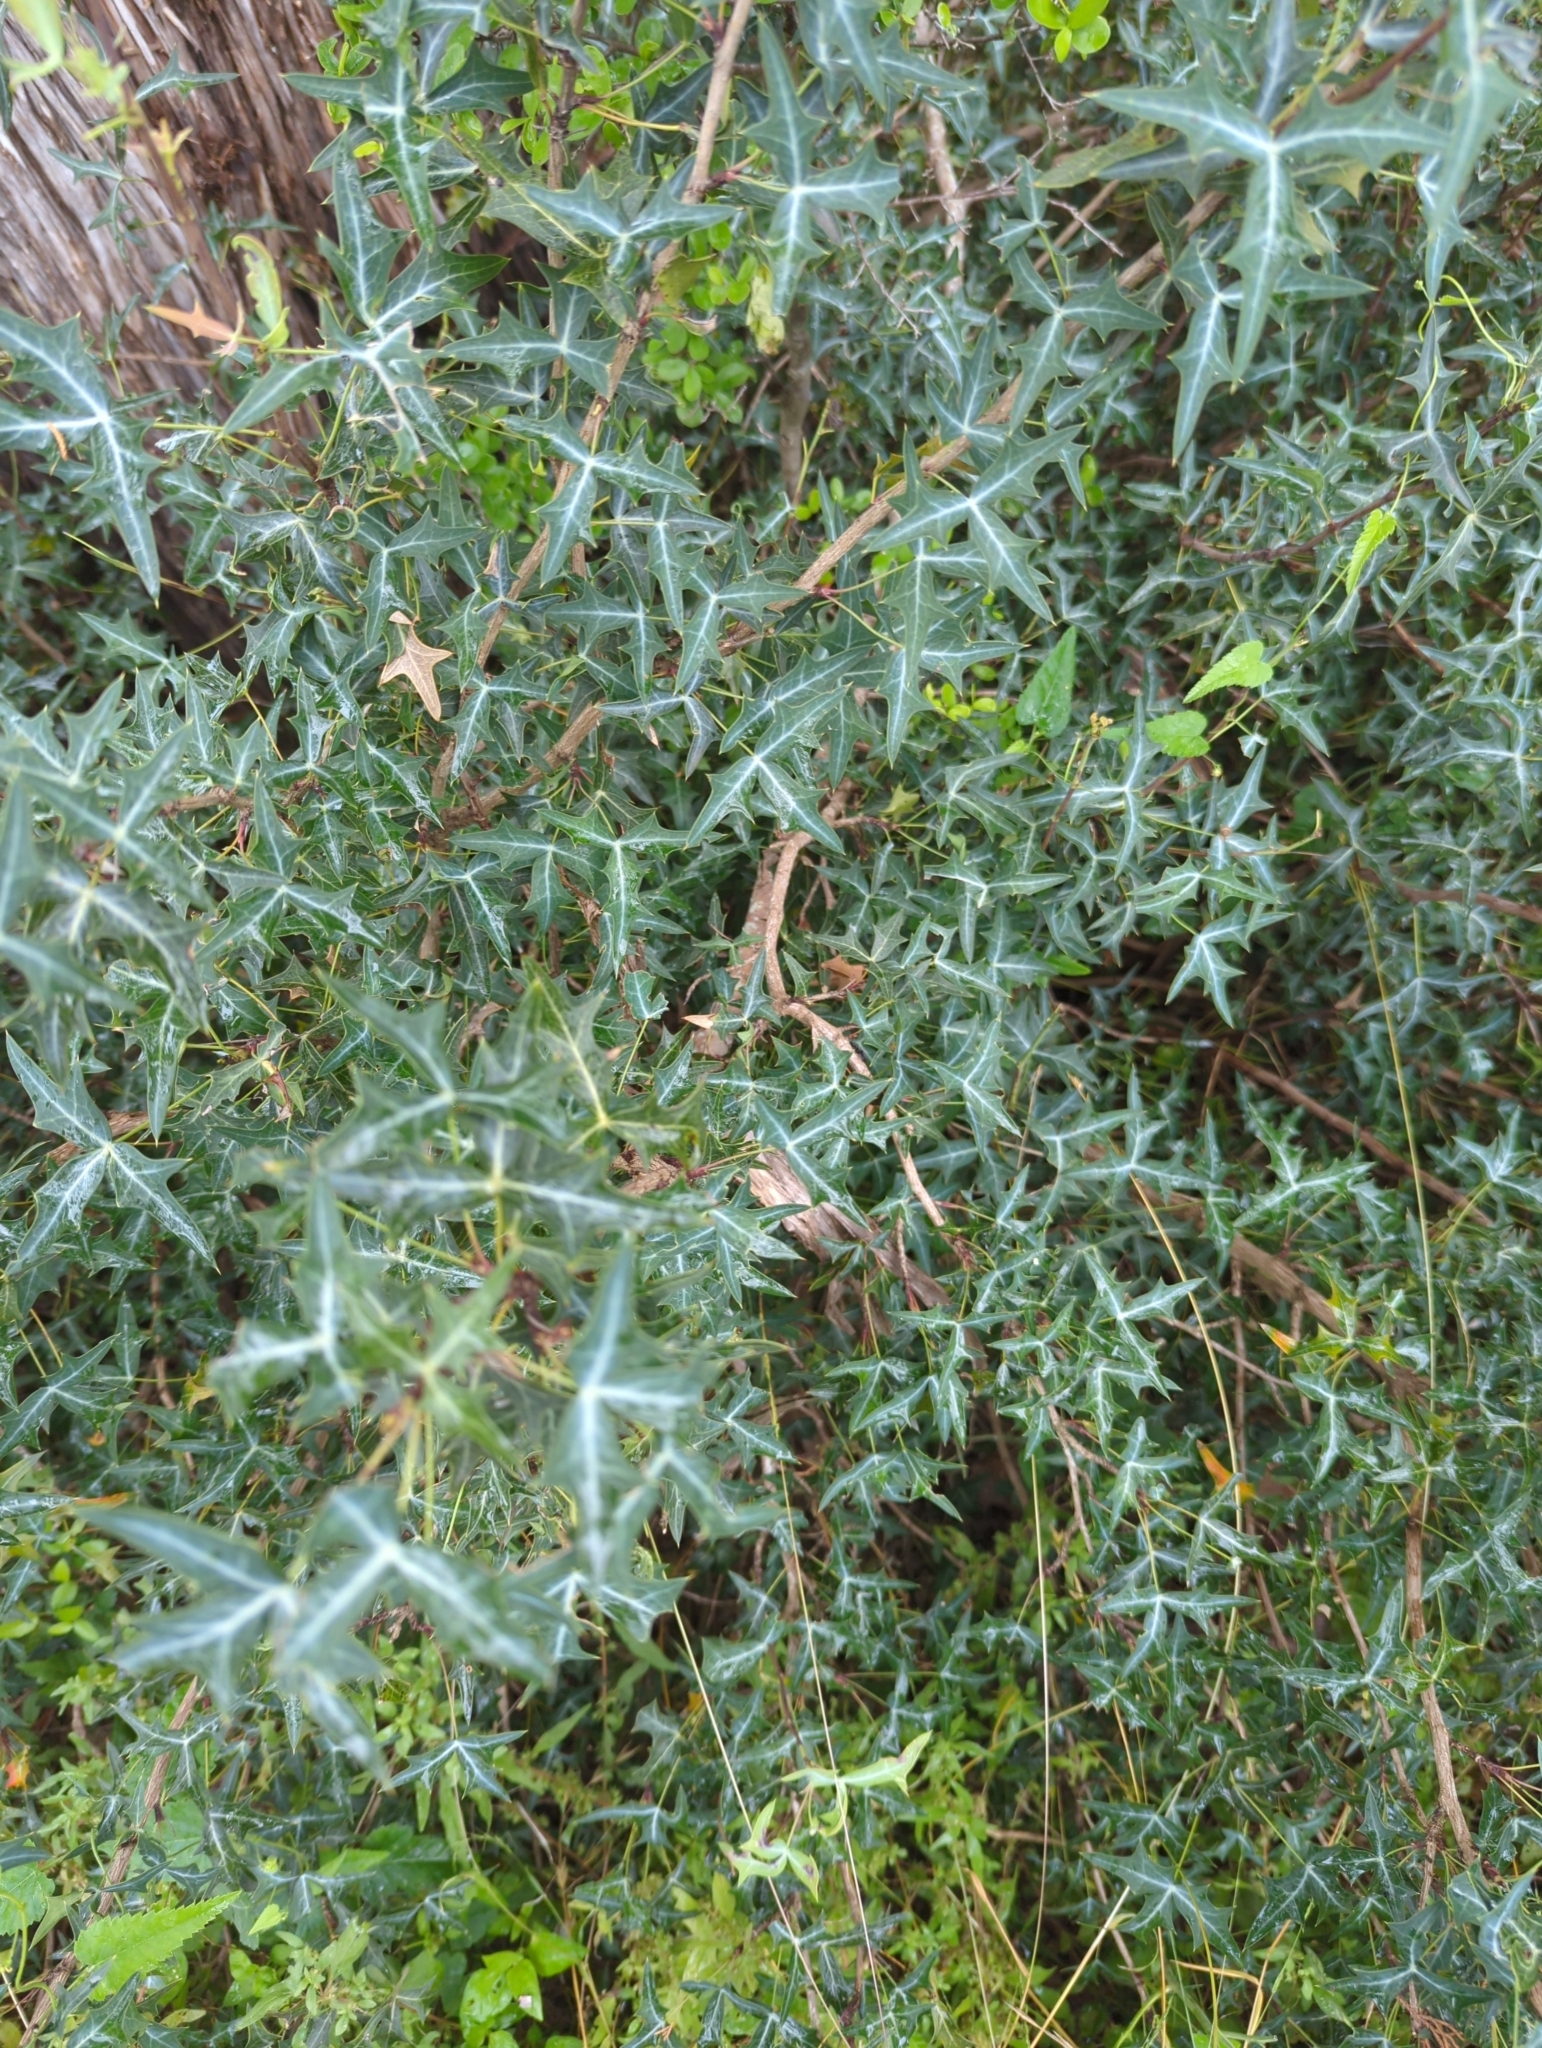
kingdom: Plantae
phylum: Tracheophyta
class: Magnoliopsida
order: Ranunculales
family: Berberidaceae
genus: Alloberberis
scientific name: Alloberberis trifoliolata
